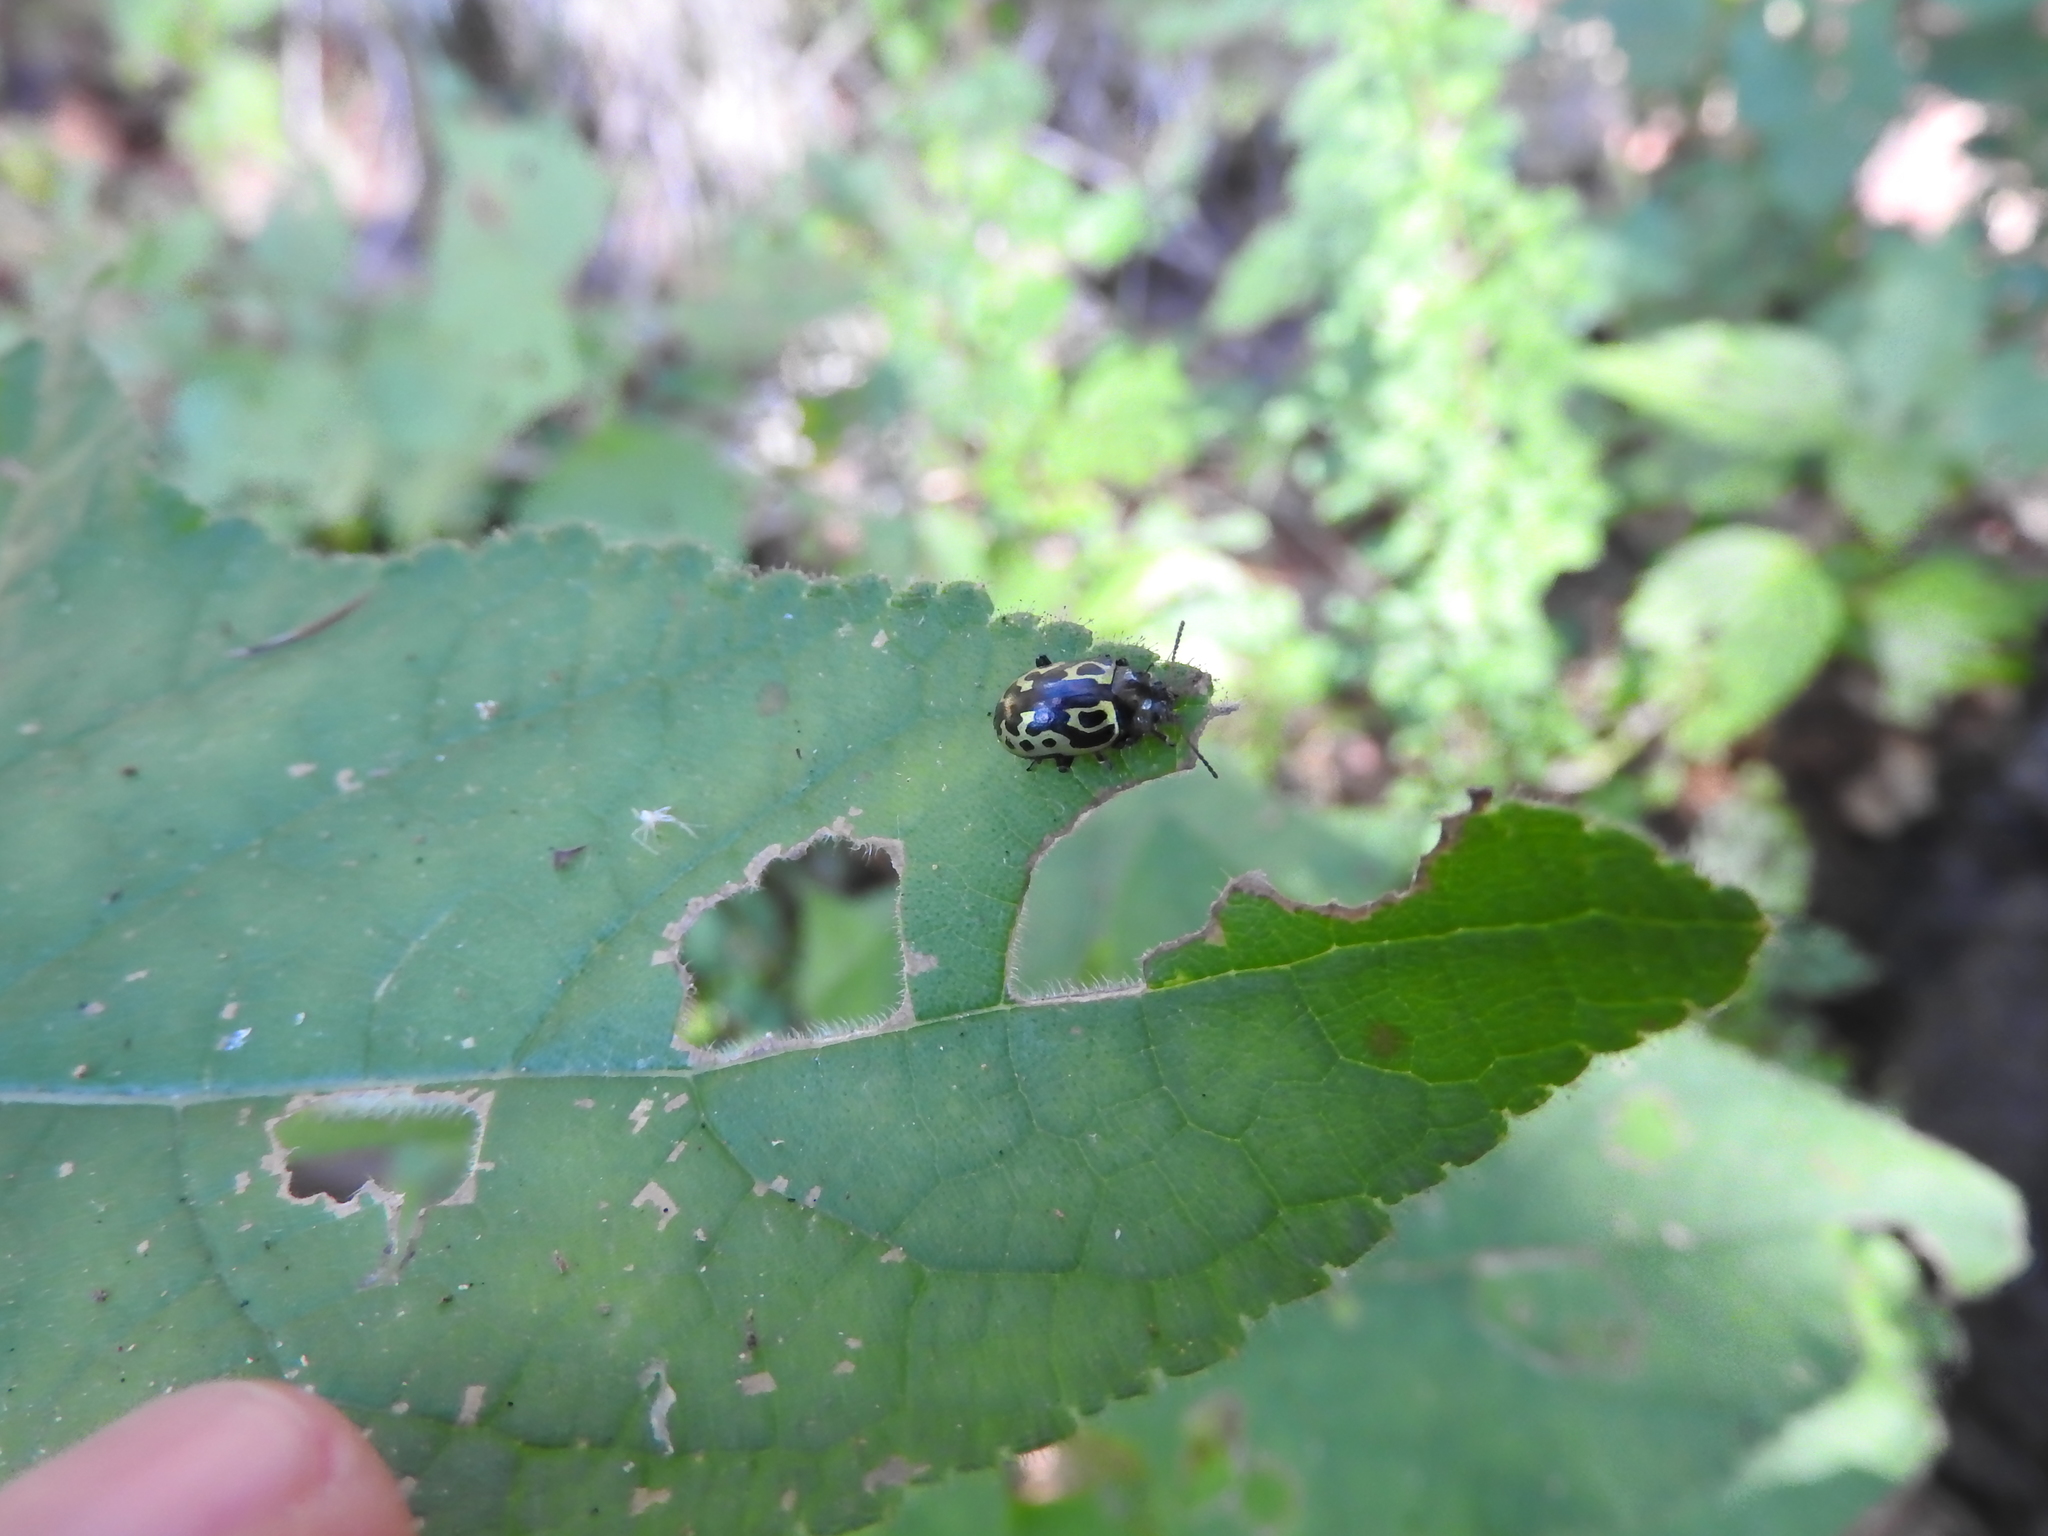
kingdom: Animalia
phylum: Arthropoda
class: Insecta
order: Coleoptera
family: Chrysomelidae
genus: Calligrapha
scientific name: Calligrapha
